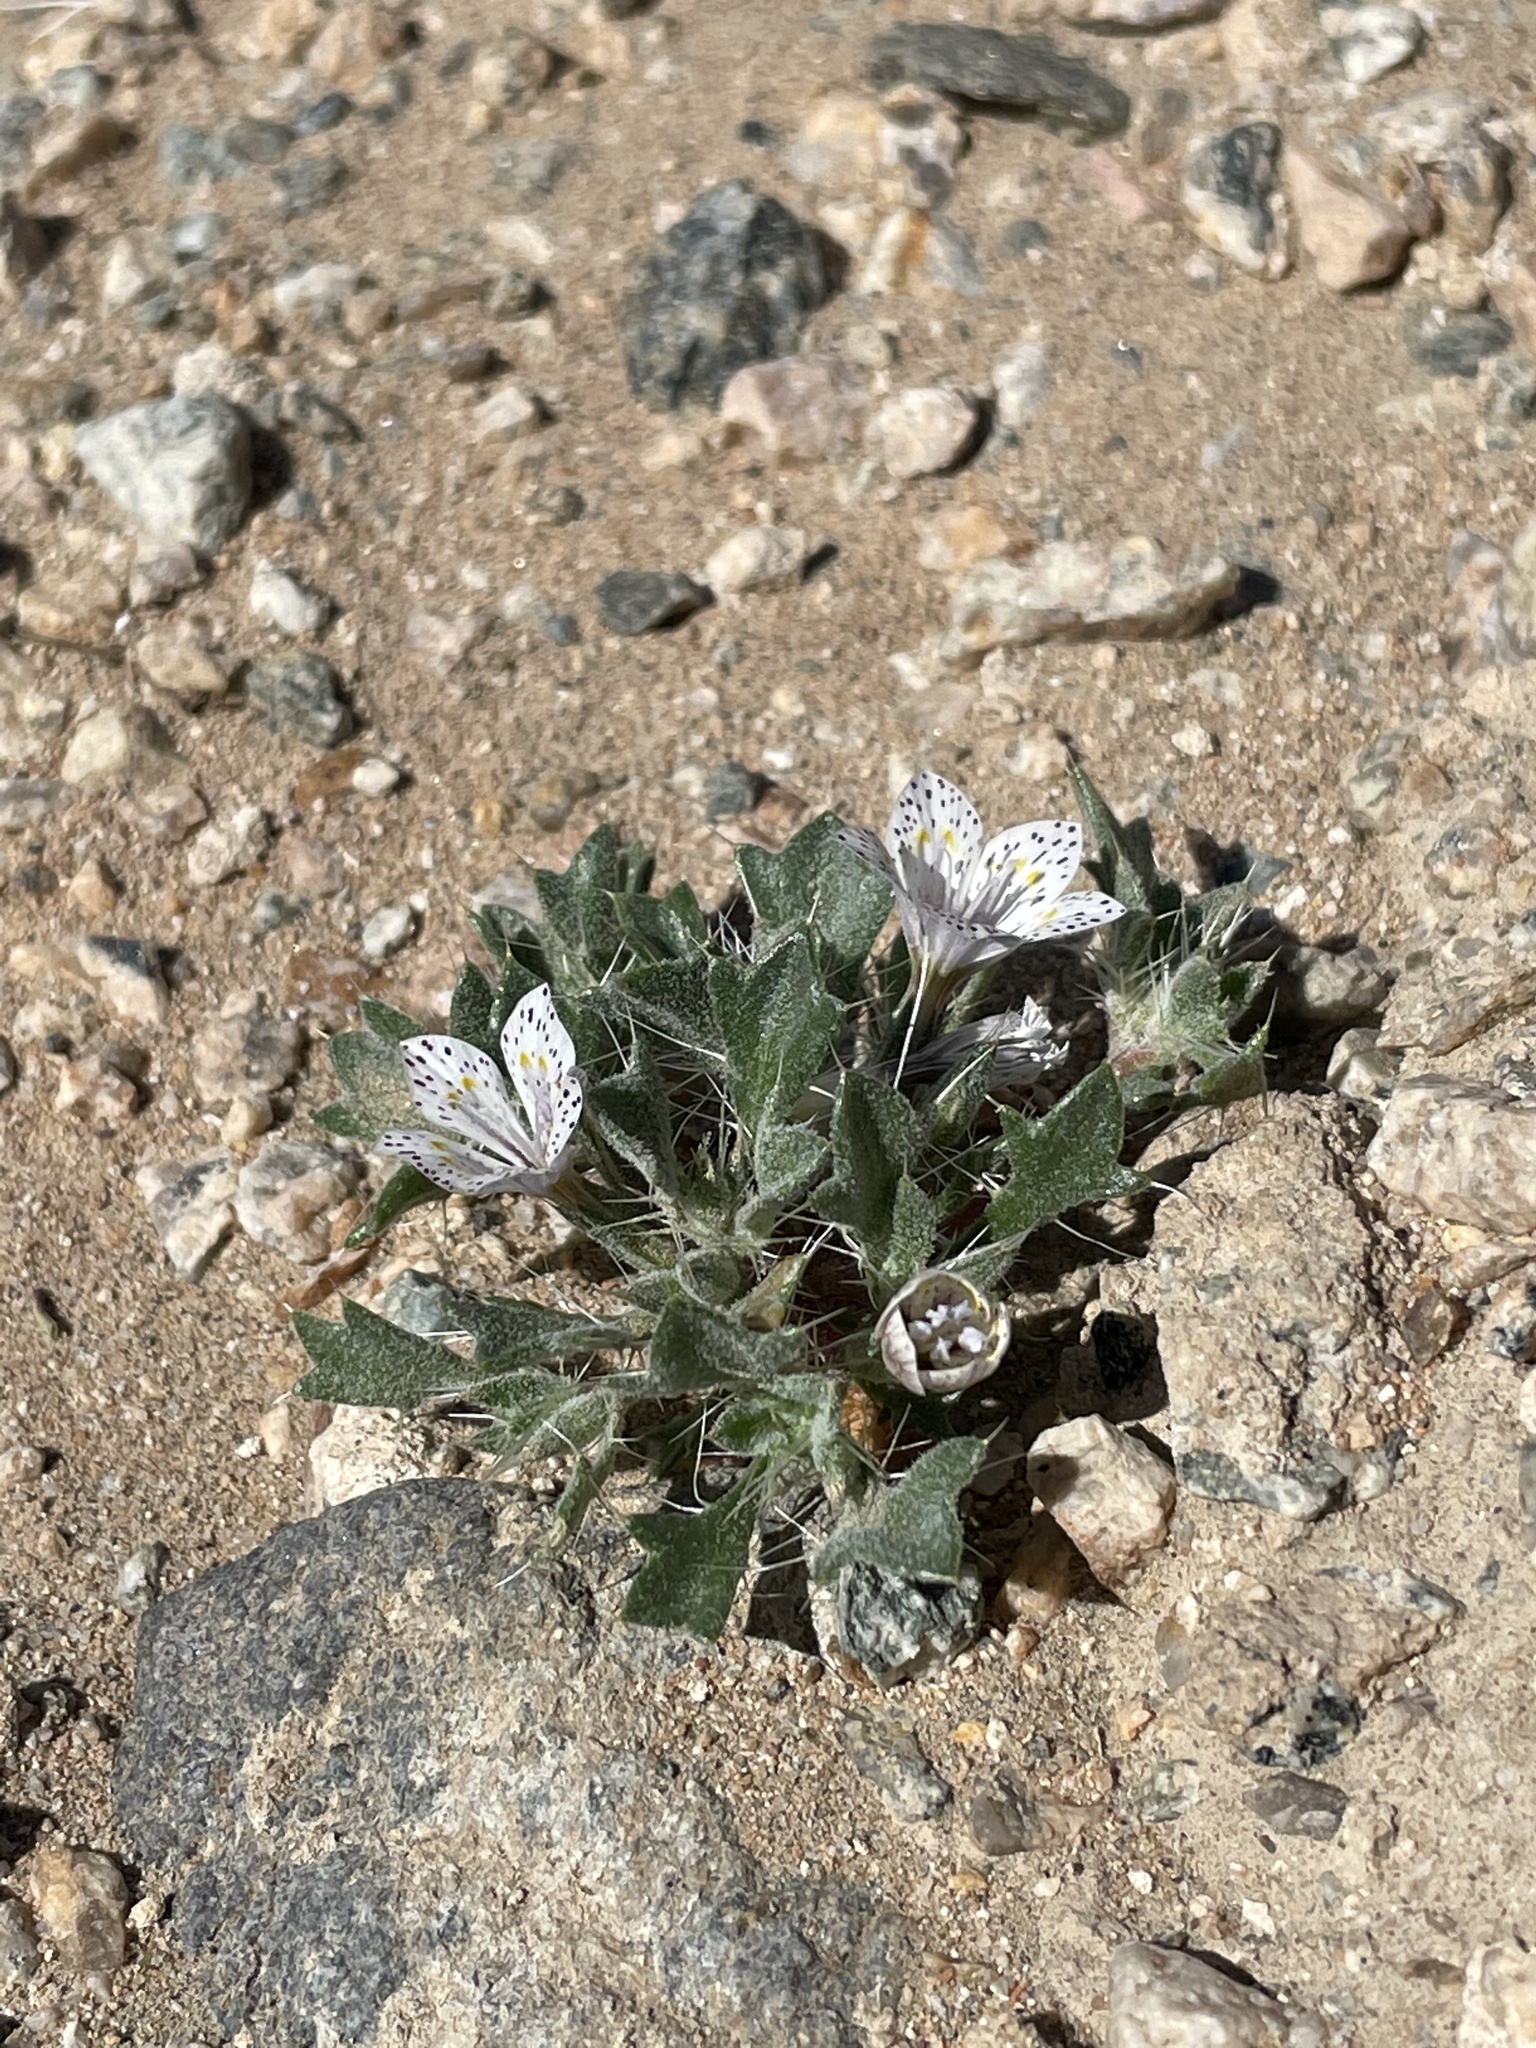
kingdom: Plantae
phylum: Tracheophyta
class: Magnoliopsida
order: Ericales
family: Polemoniaceae
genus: Langloisia
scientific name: Langloisia setosissima
